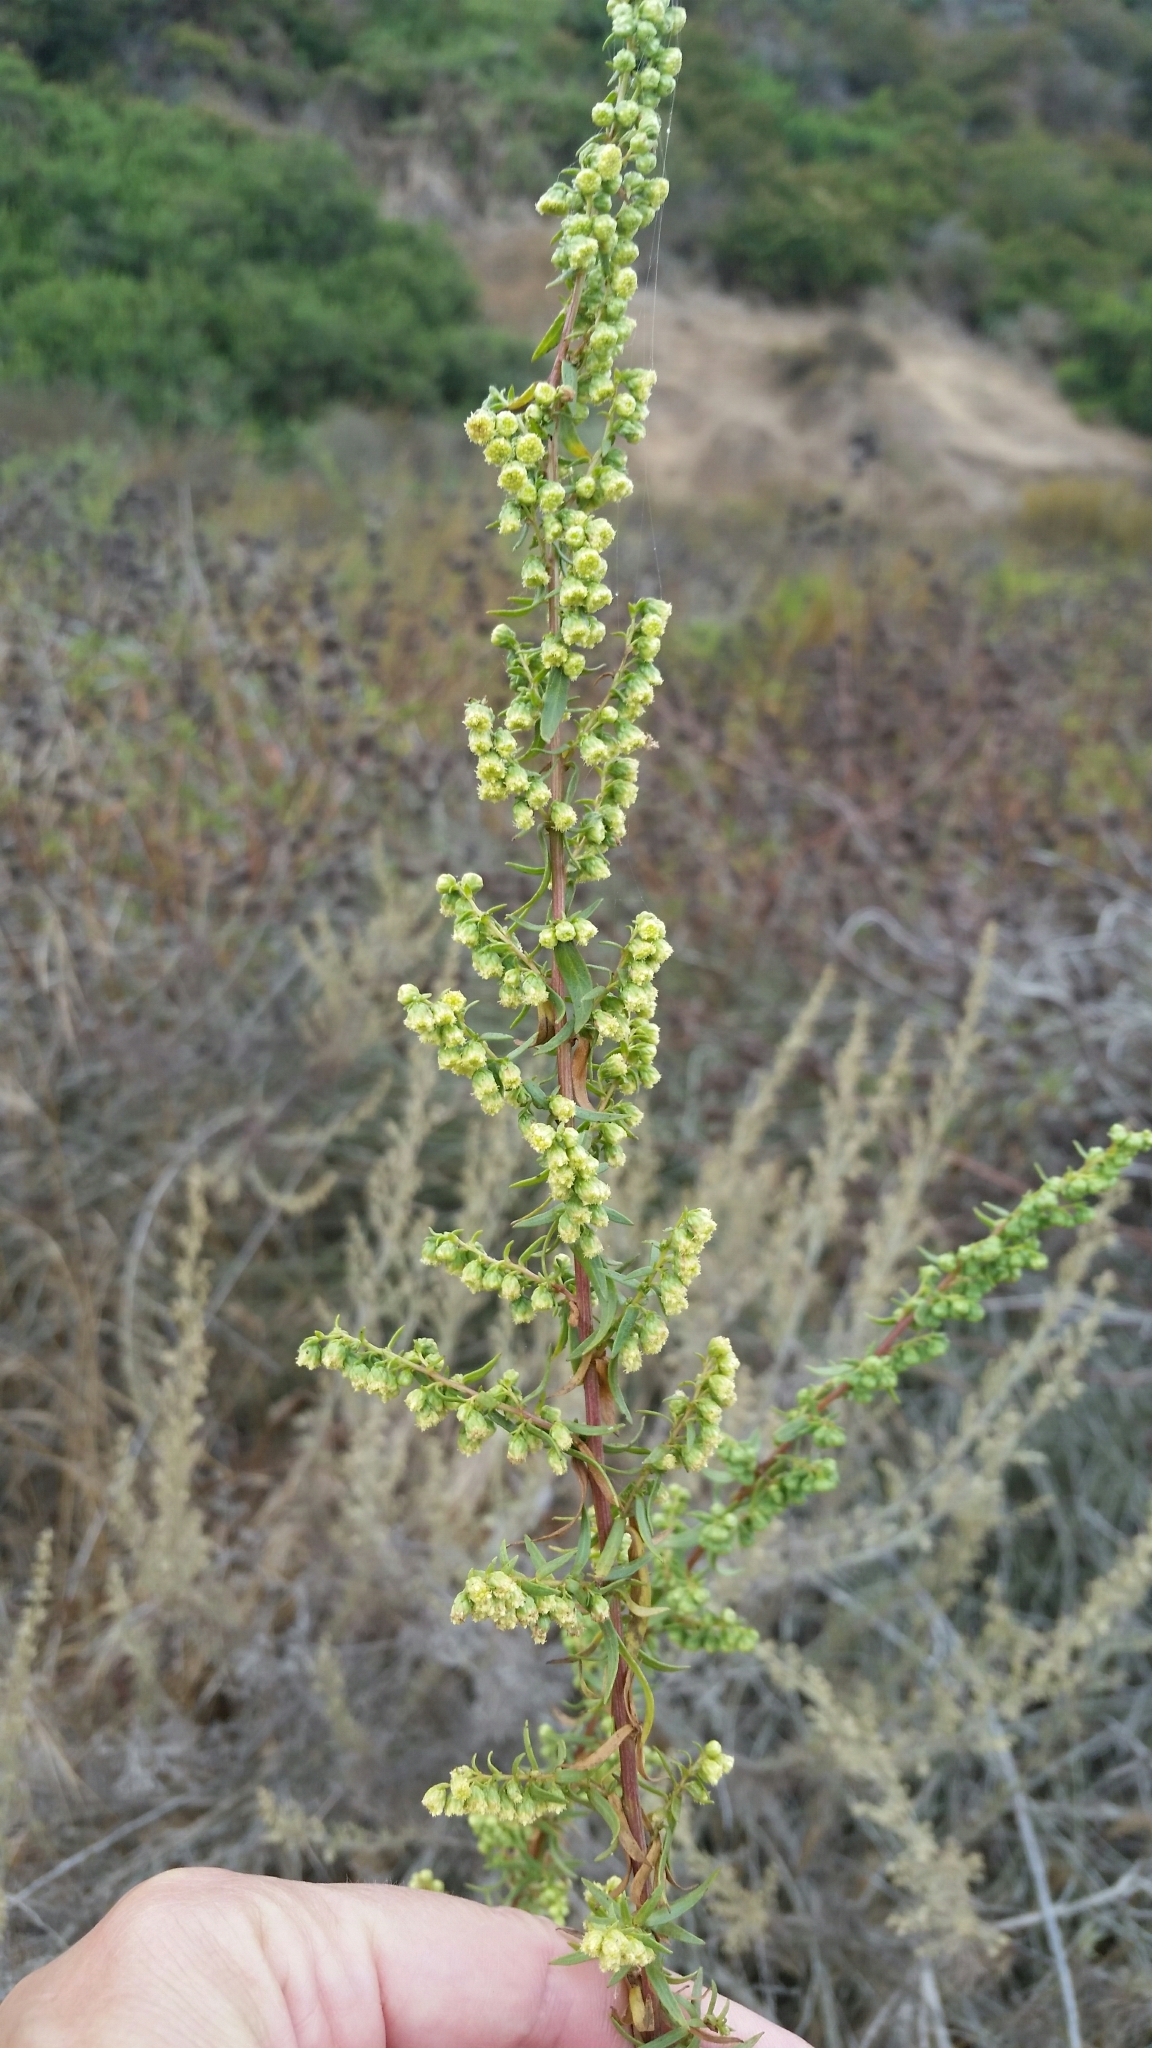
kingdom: Plantae
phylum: Tracheophyta
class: Magnoliopsida
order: Asterales
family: Asteraceae
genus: Artemisia
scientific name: Artemisia dracunculus
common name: Tarragon
